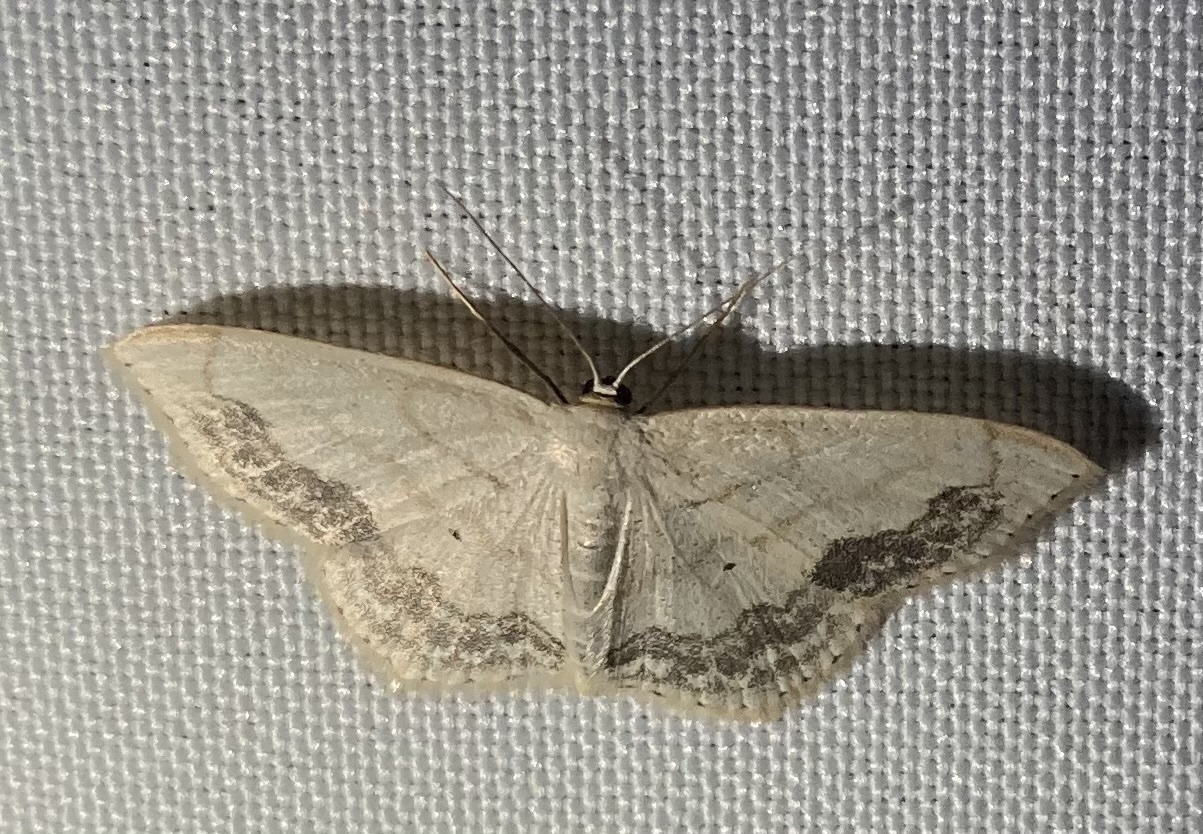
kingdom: Animalia
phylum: Arthropoda
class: Insecta
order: Lepidoptera
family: Geometridae
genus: Scopula
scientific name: Scopula limboundata
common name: Large lace border
